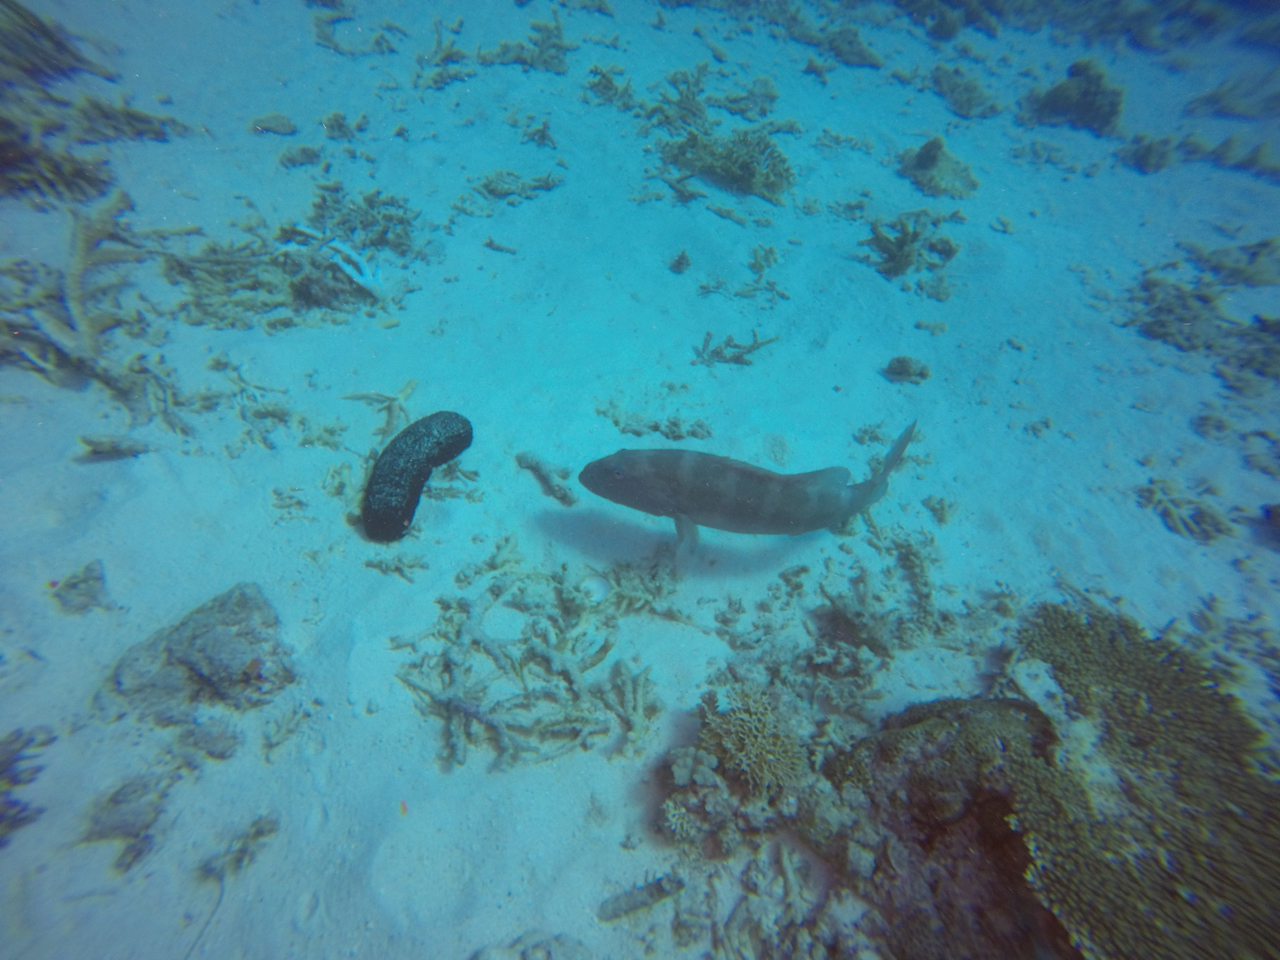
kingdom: Animalia
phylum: Chordata
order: Perciformes
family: Serranidae
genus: Plectropomus
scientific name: Plectropomus leopardus
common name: Coral trout
